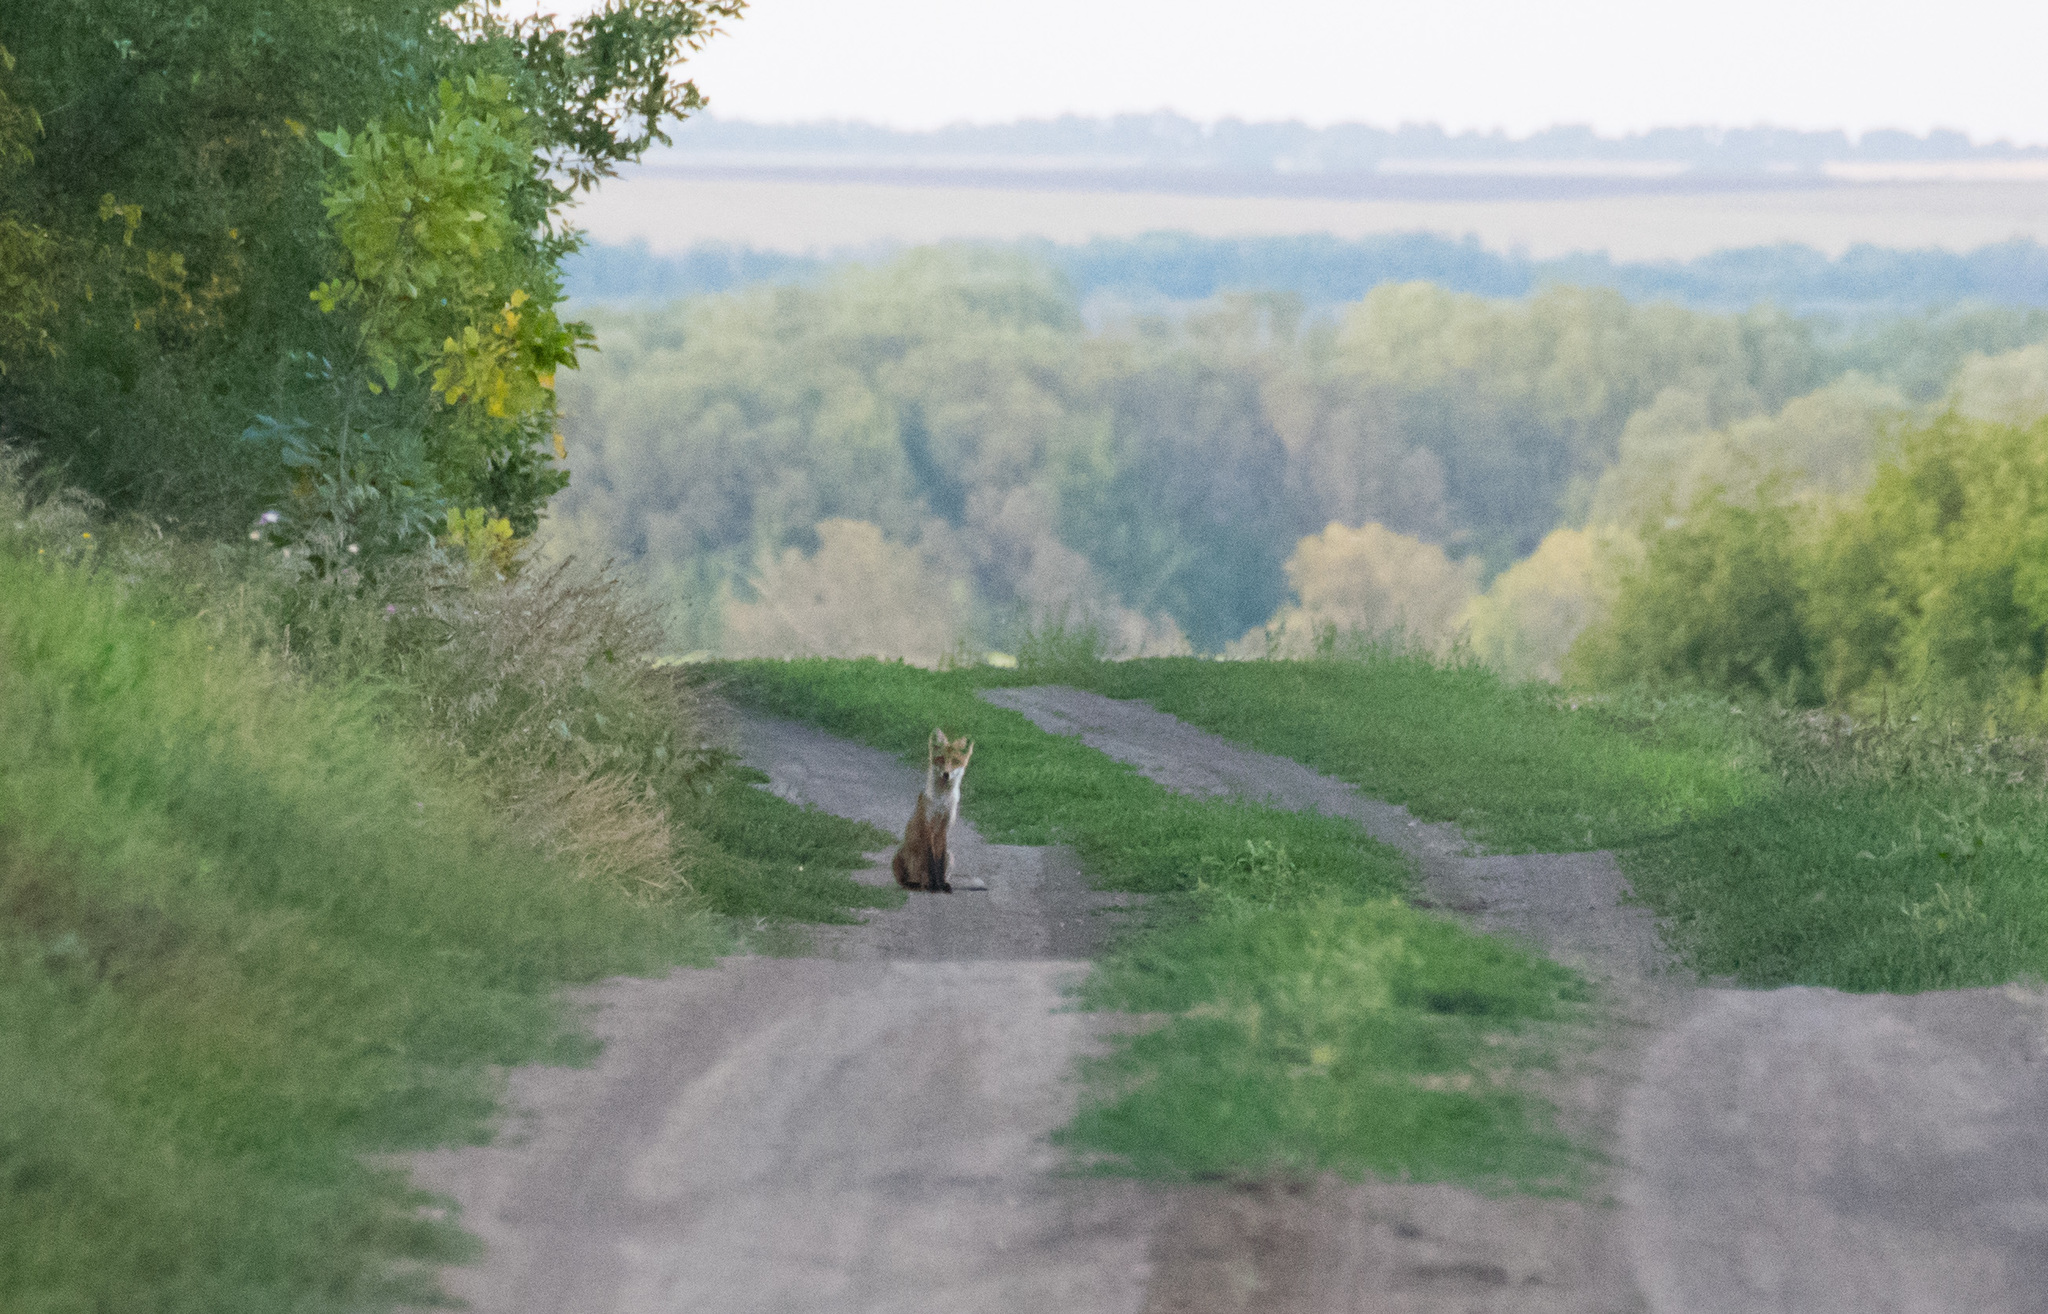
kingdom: Animalia
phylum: Chordata
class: Mammalia
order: Carnivora
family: Canidae
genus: Vulpes
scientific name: Vulpes vulpes
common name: Red fox
